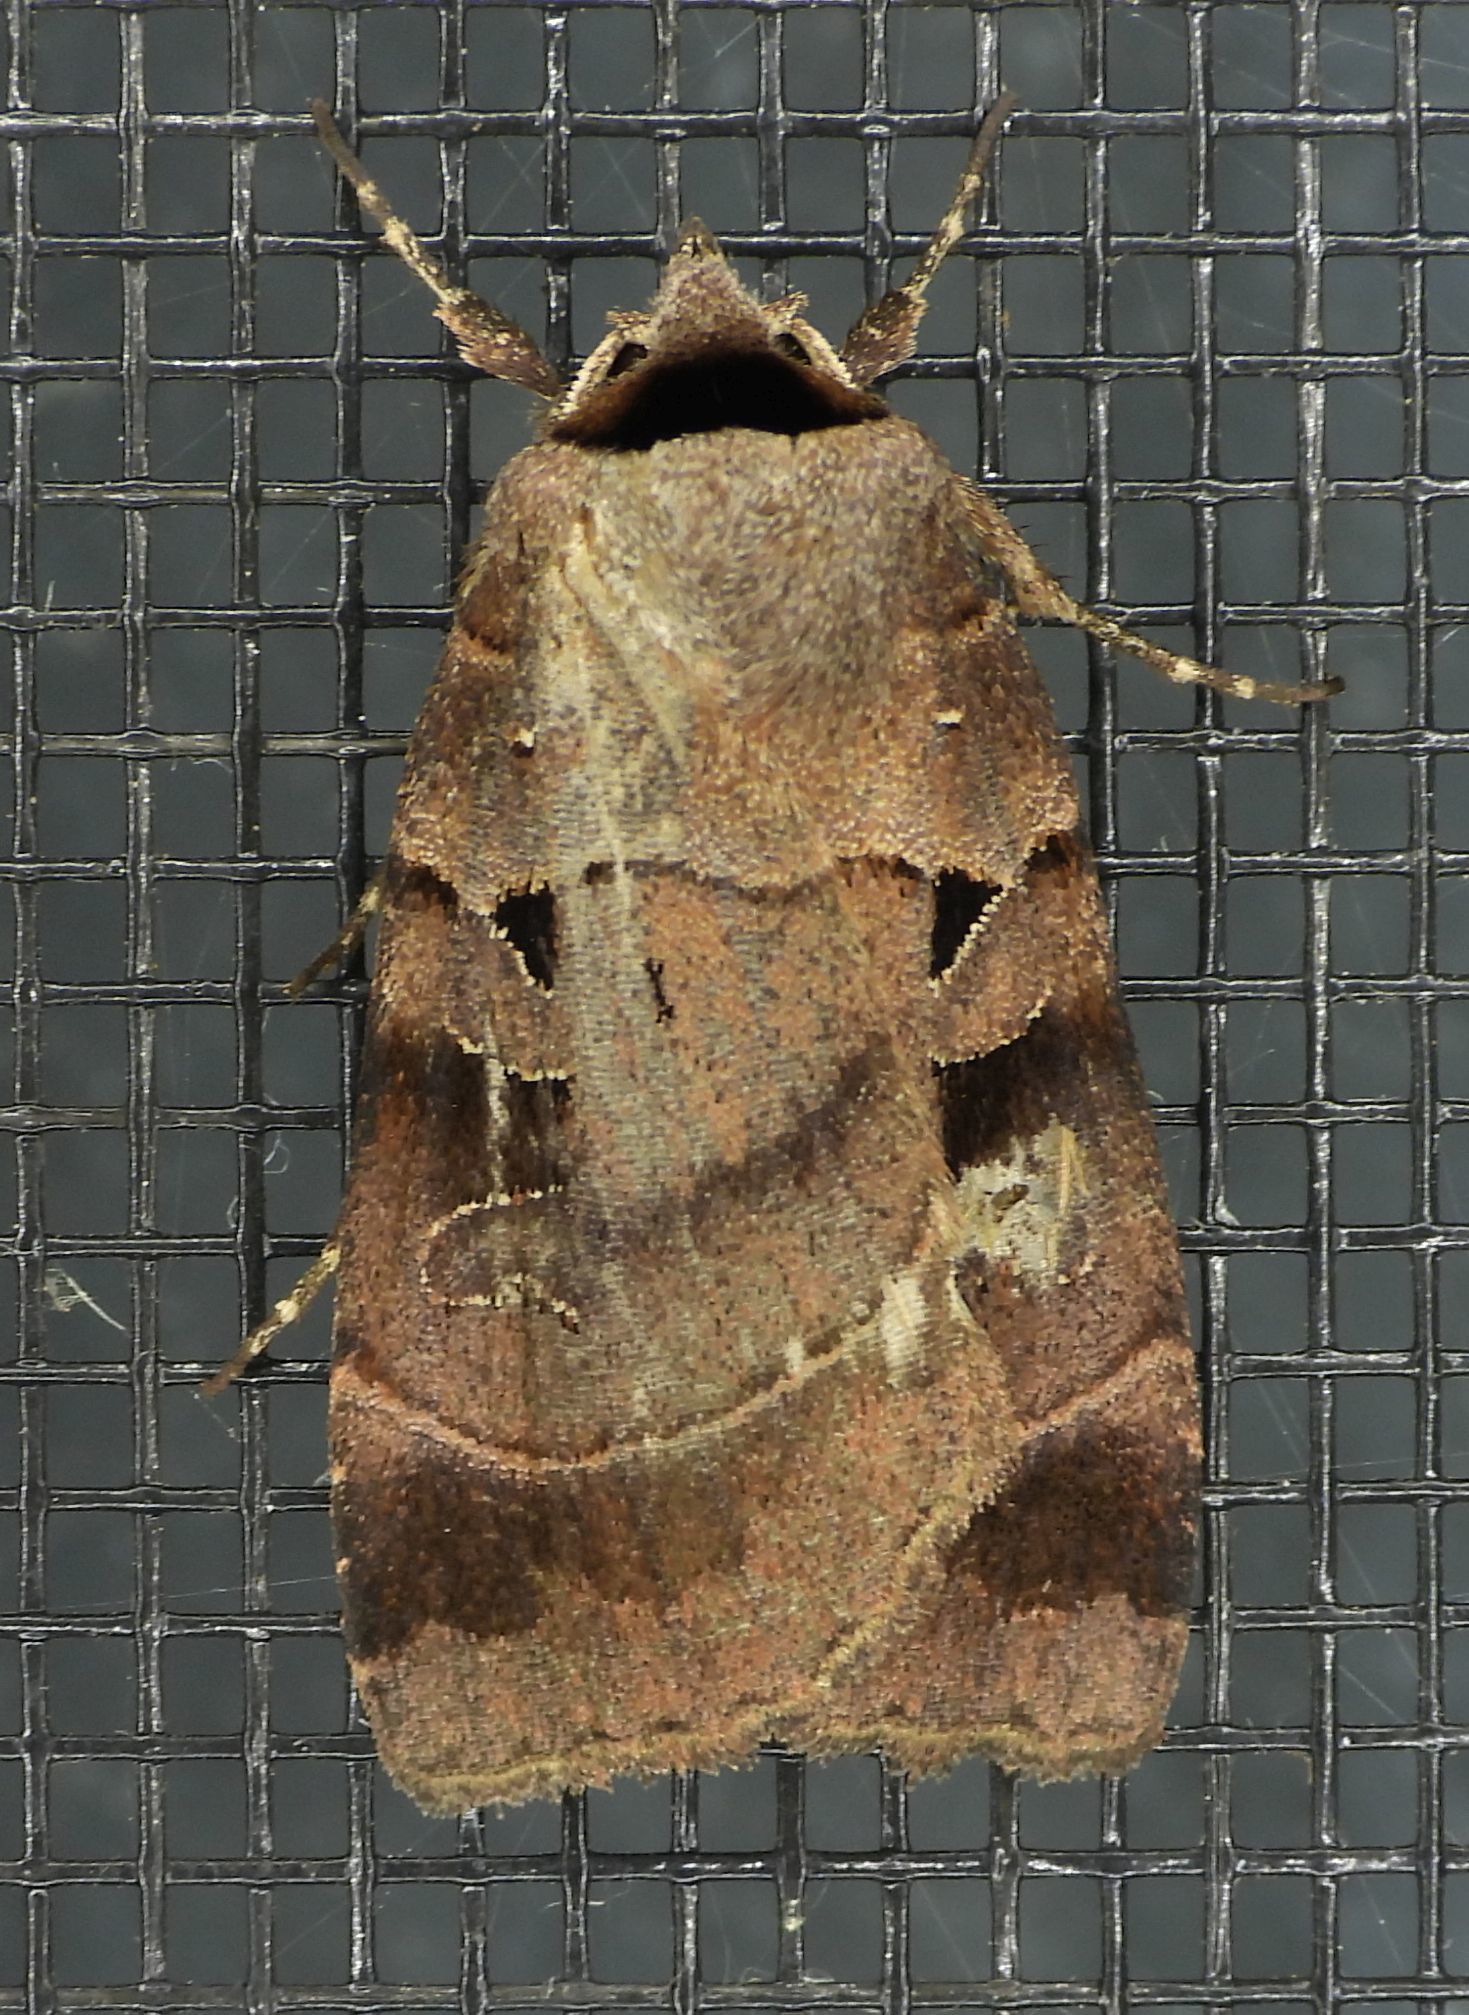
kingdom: Animalia
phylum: Arthropoda
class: Insecta
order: Lepidoptera
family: Noctuidae
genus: Agnorisma
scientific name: Agnorisma badinodis
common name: Pale-banded dart
